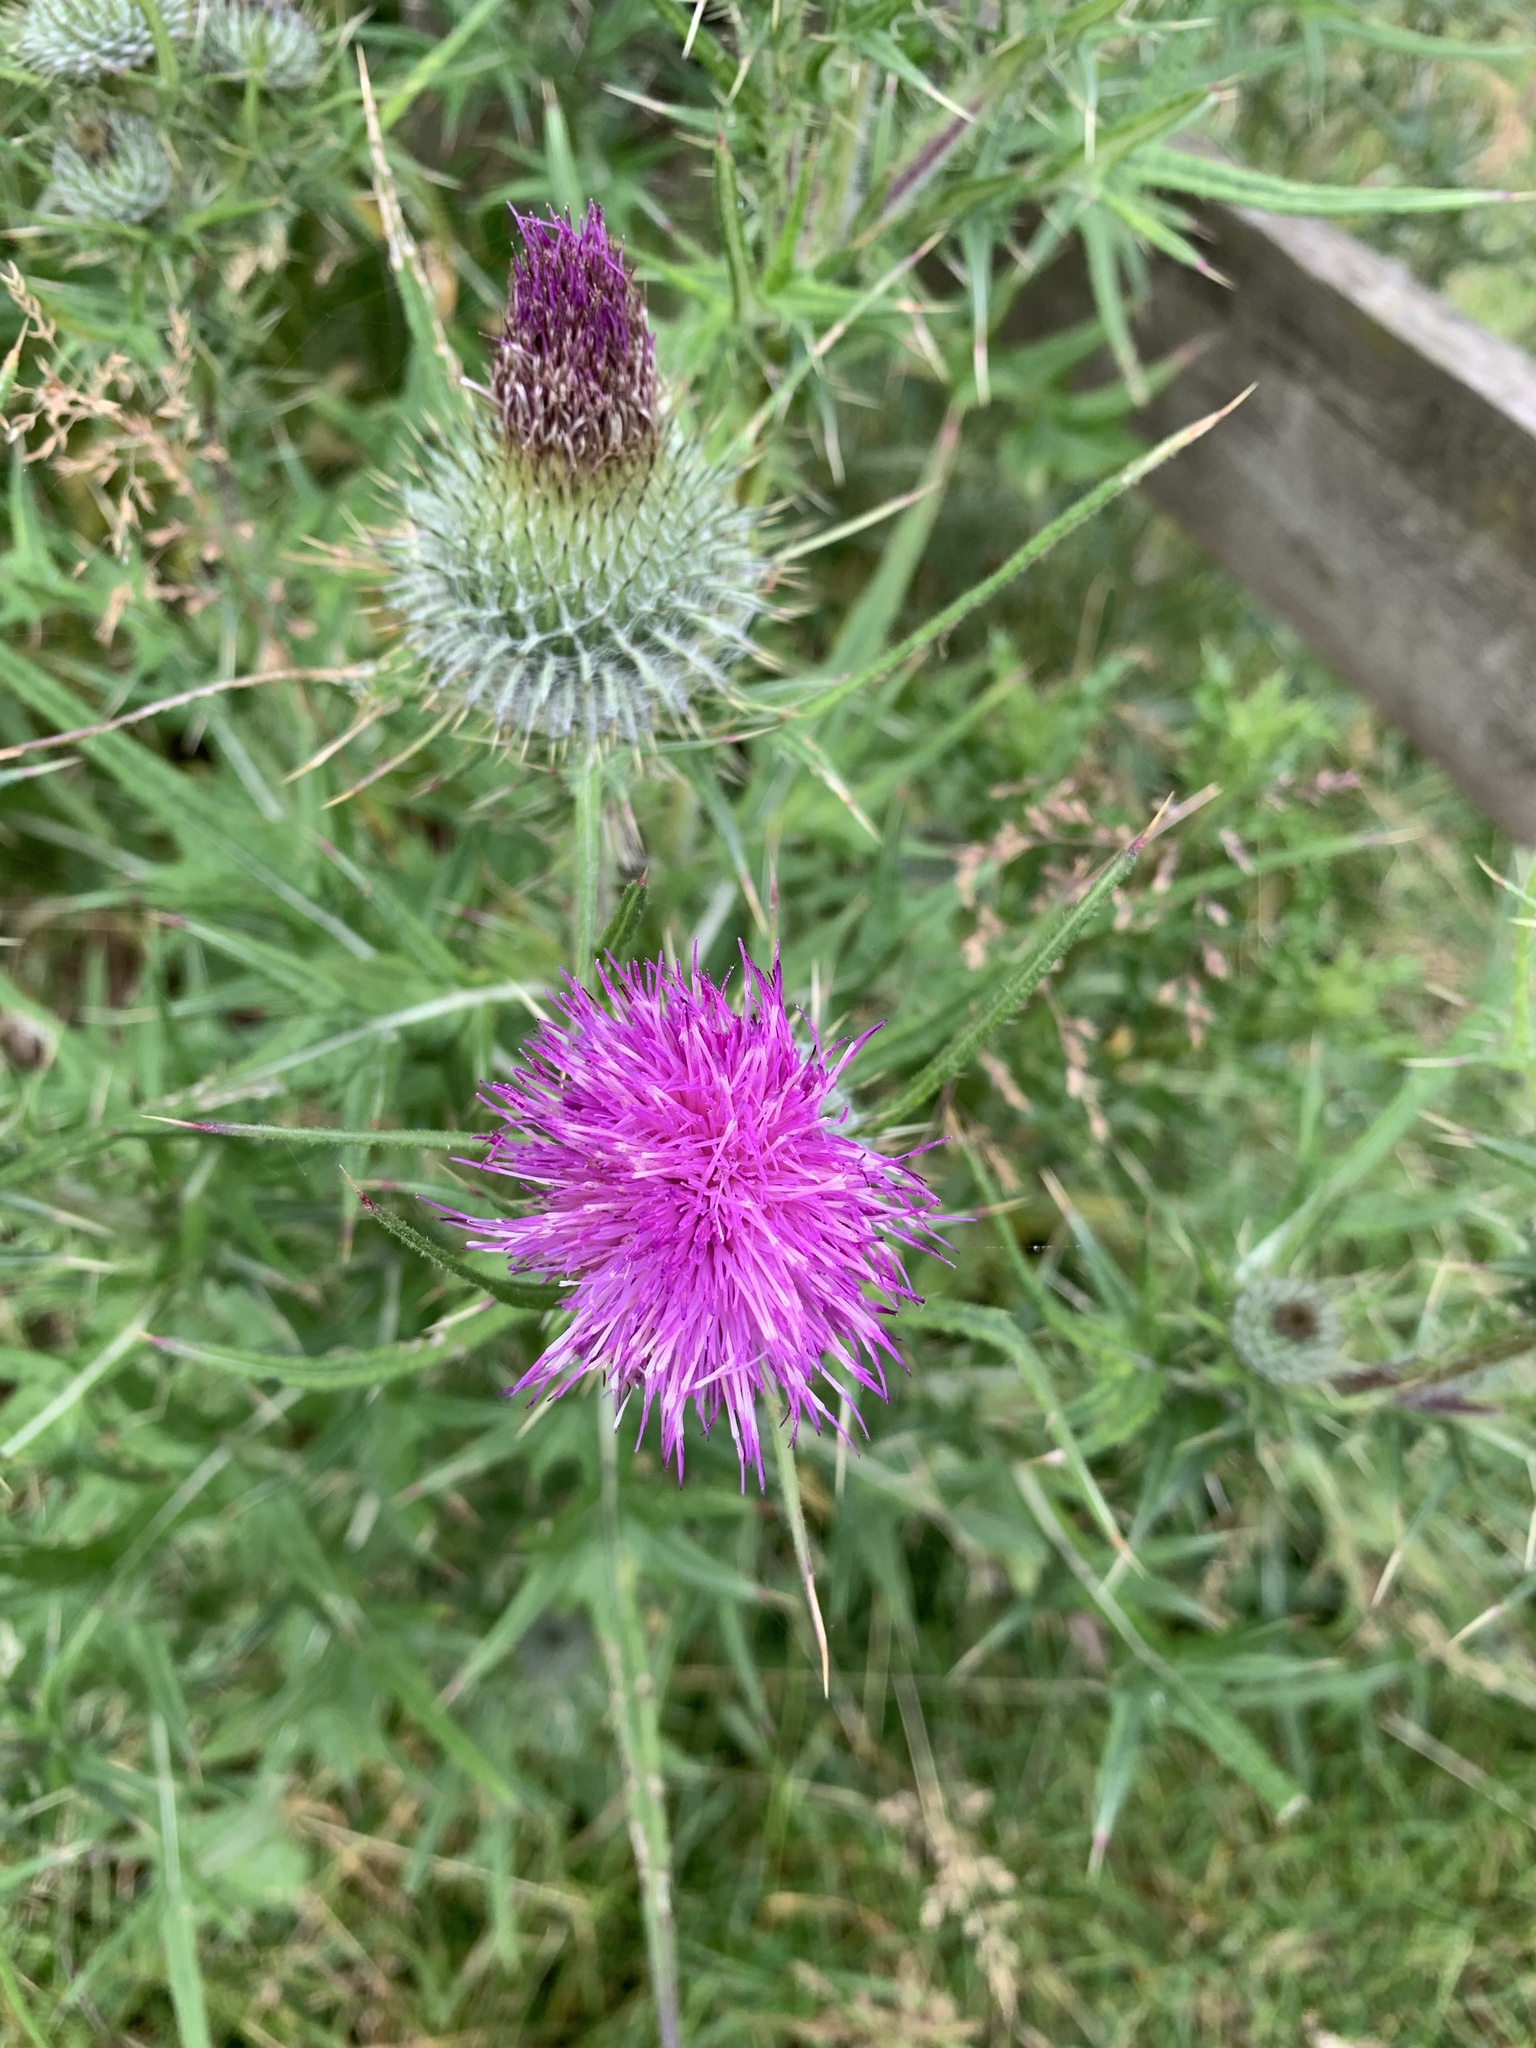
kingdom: Plantae
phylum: Tracheophyta
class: Magnoliopsida
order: Asterales
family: Asteraceae
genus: Cirsium
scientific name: Cirsium vulgare
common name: Bull thistle
